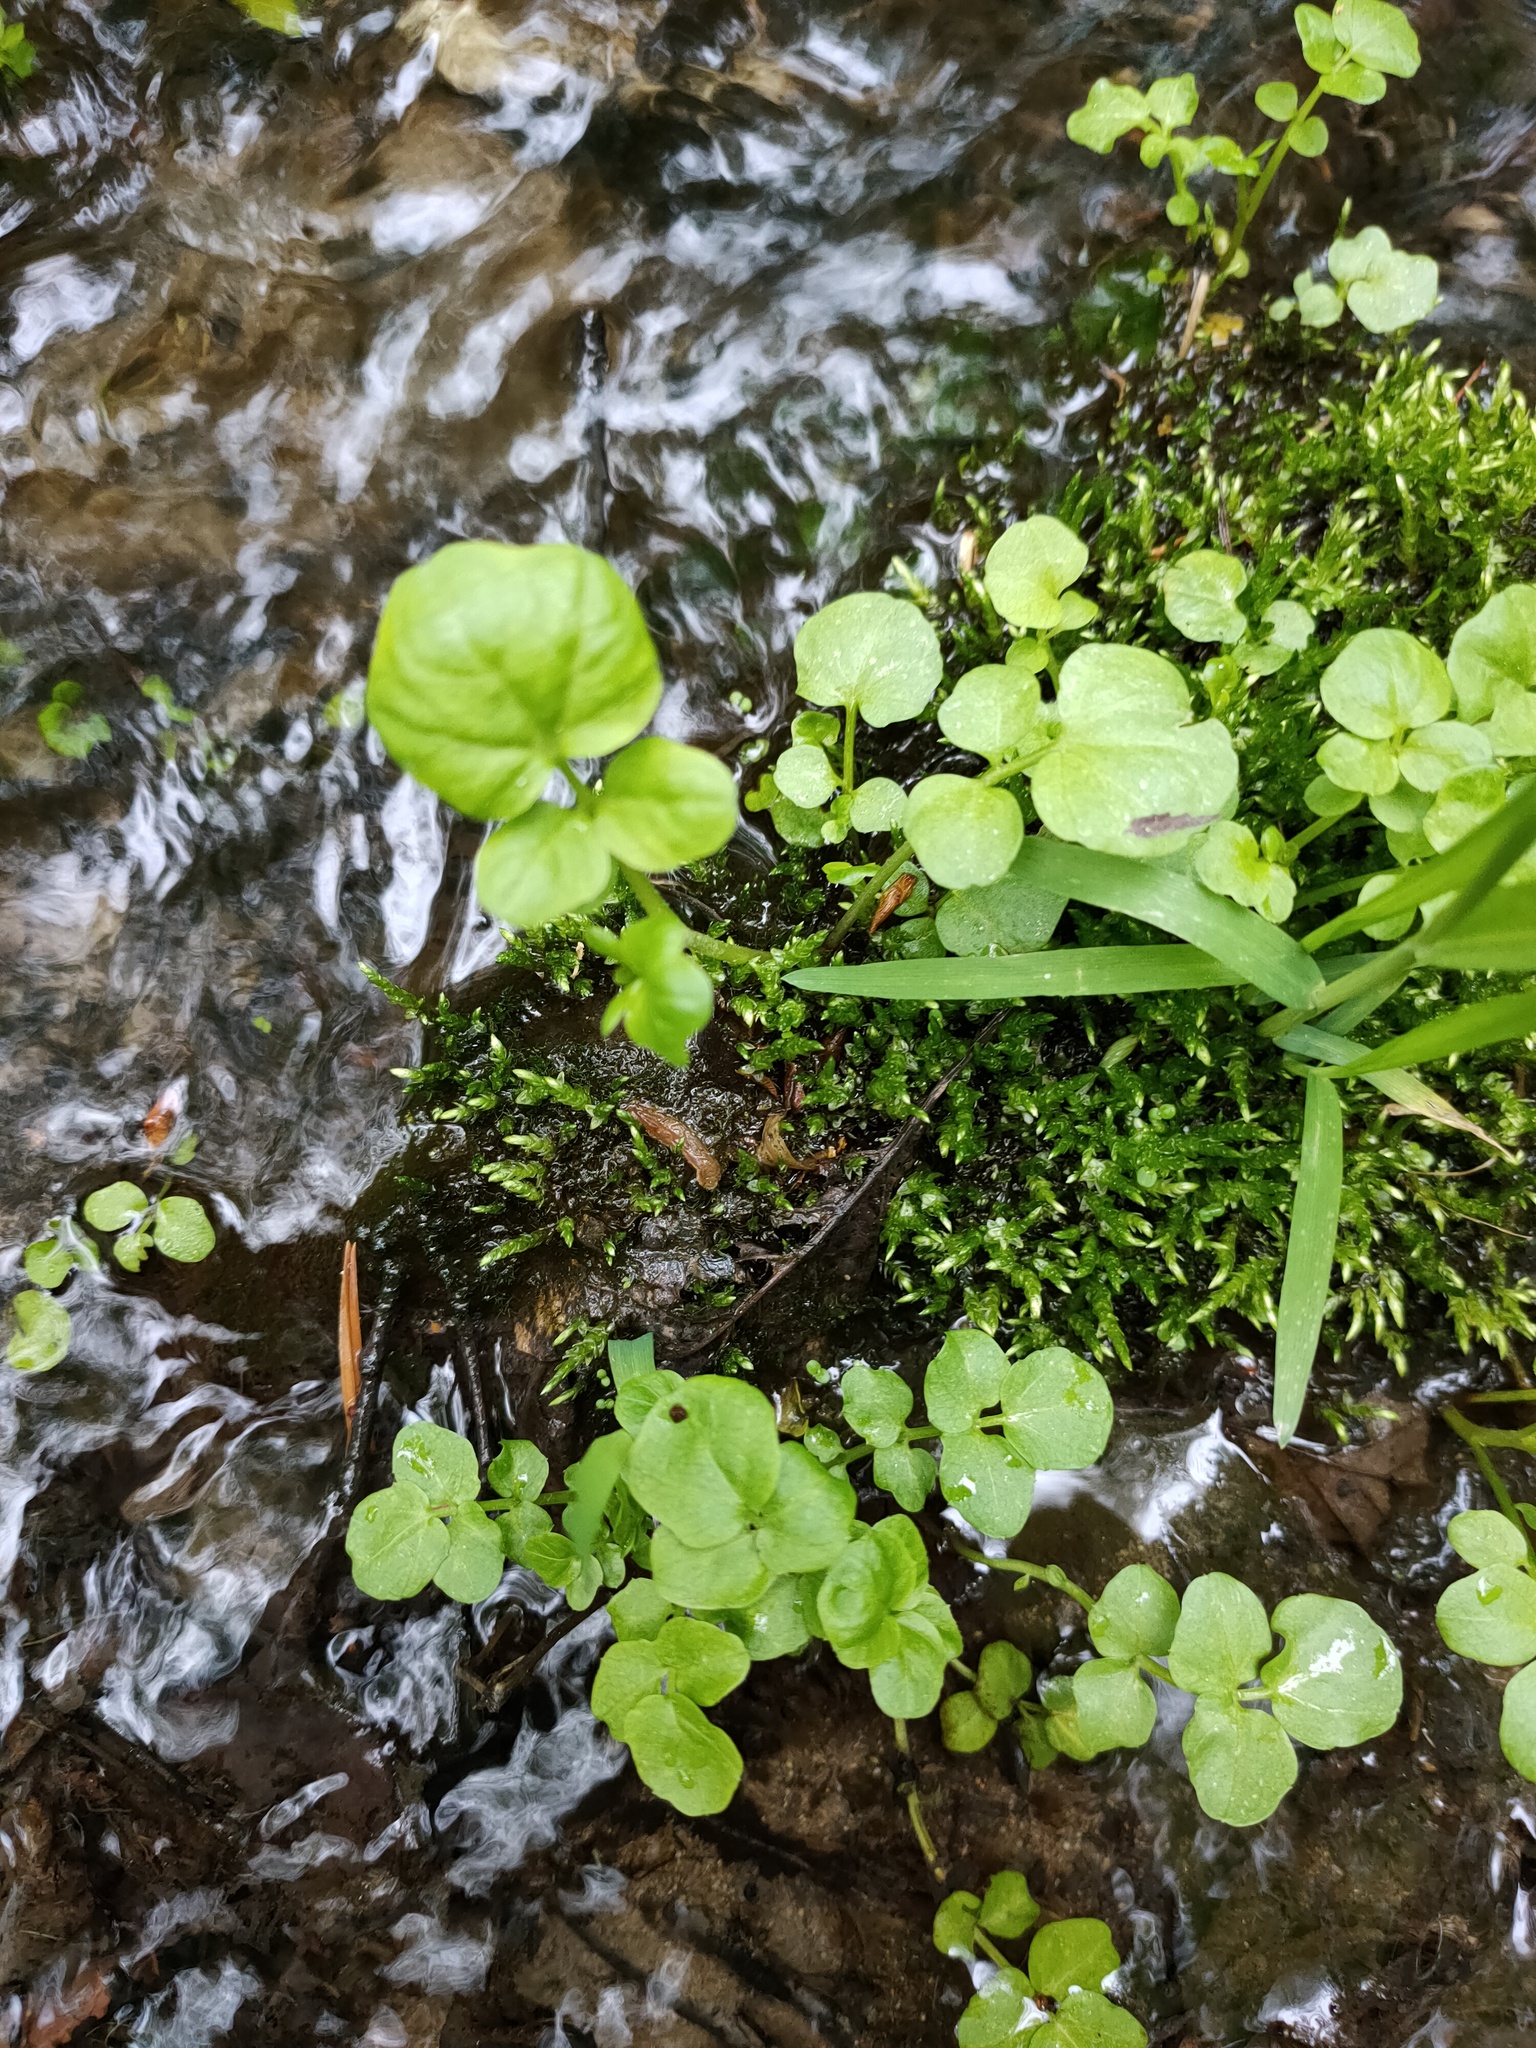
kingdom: Plantae
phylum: Tracheophyta
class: Magnoliopsida
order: Brassicales
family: Brassicaceae
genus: Cardamine
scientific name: Cardamine amara
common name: Large bitter-cress
